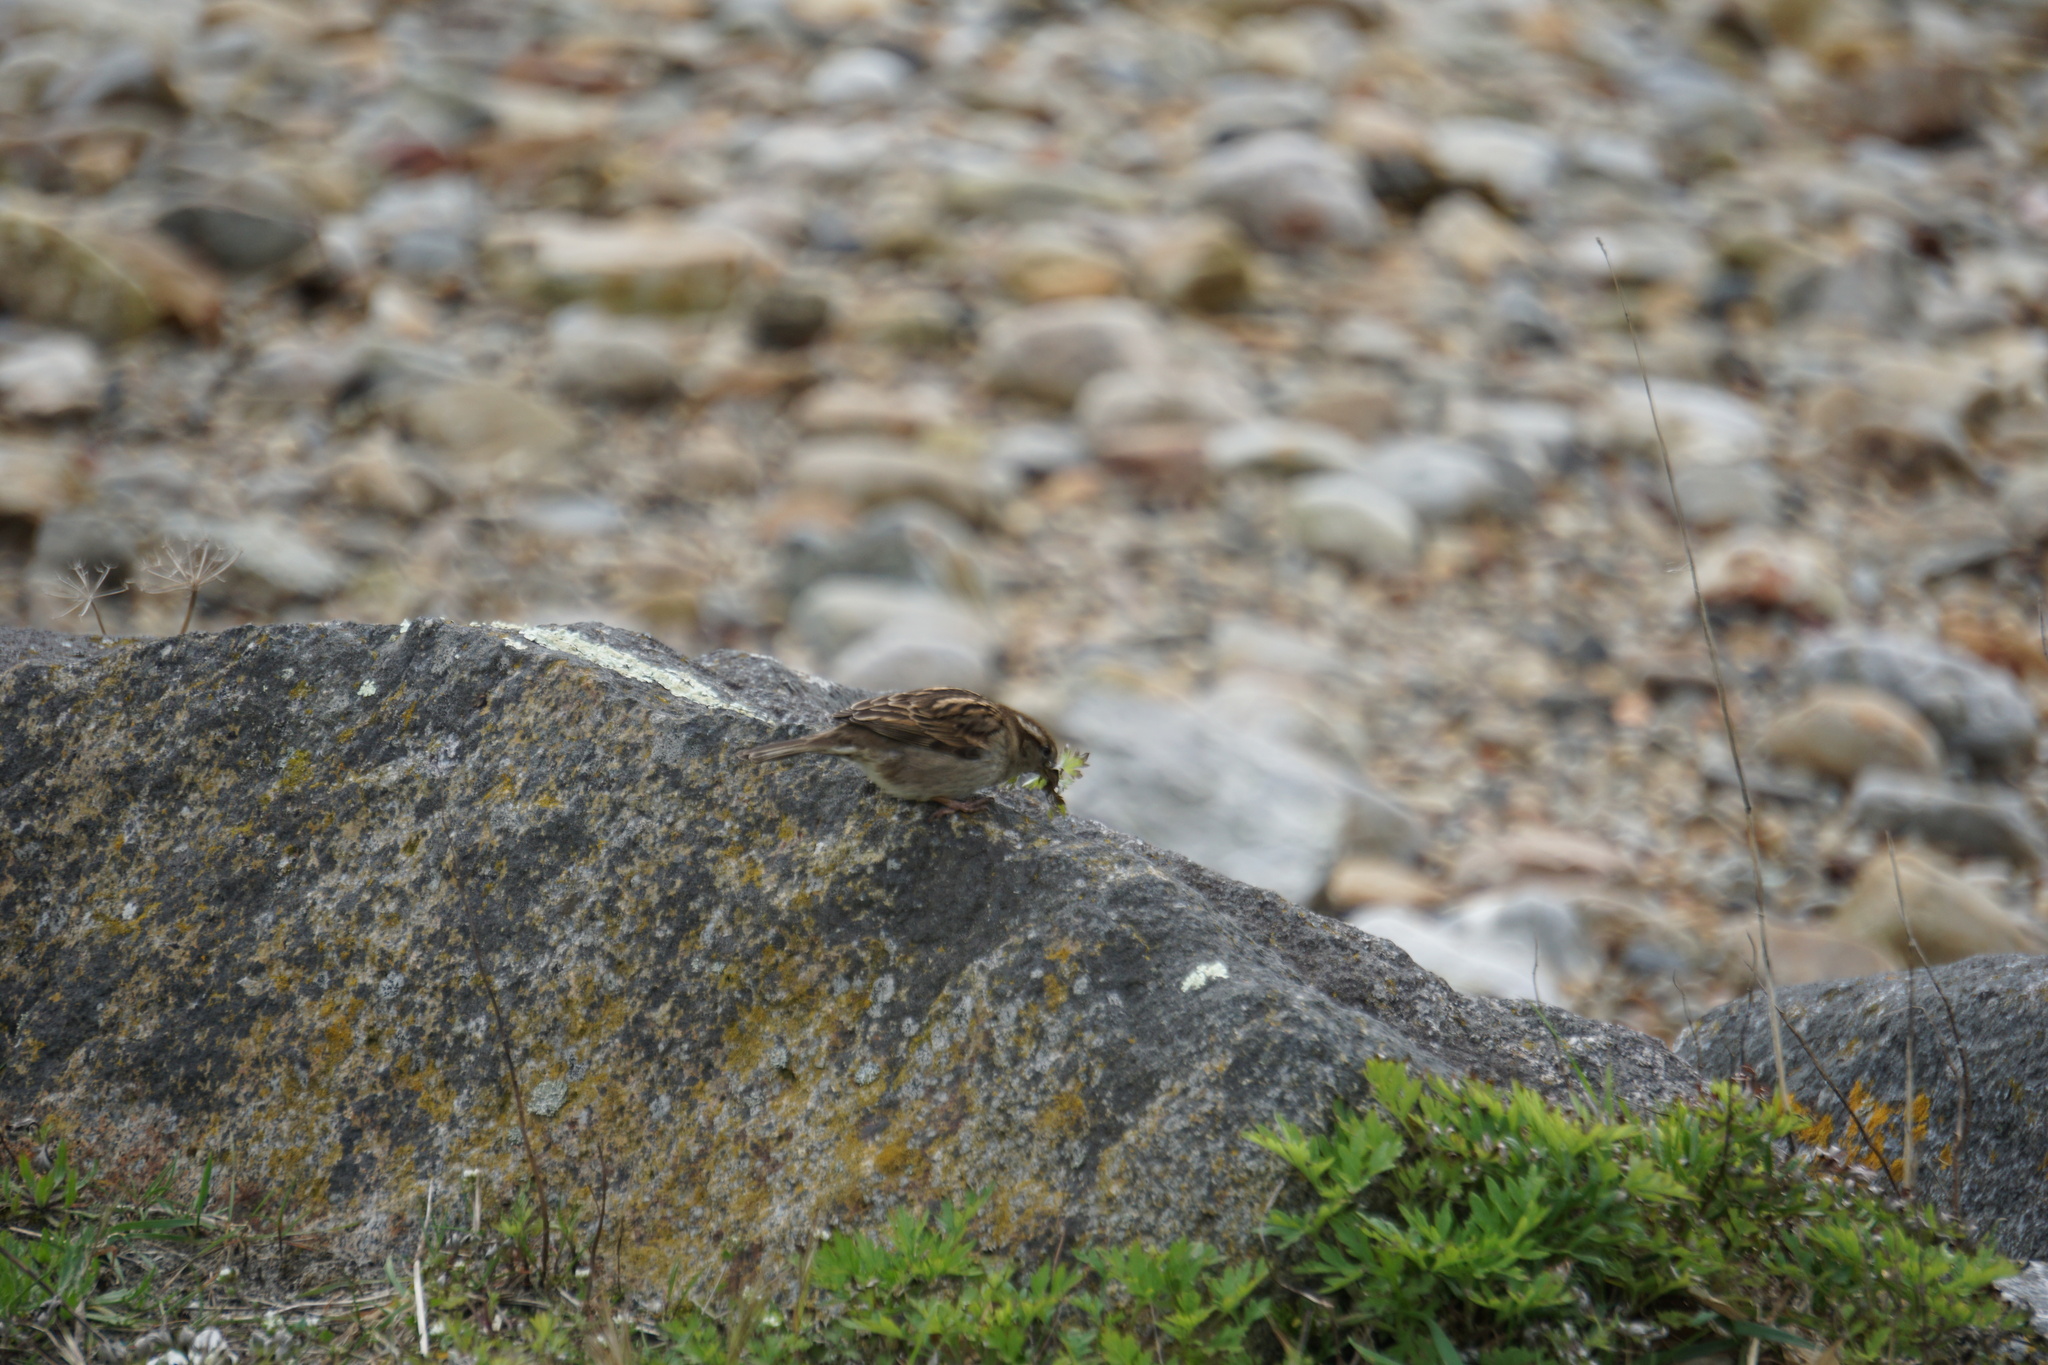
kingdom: Animalia
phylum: Chordata
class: Aves
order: Passeriformes
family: Passeridae
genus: Passer
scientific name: Passer domesticus
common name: House sparrow
